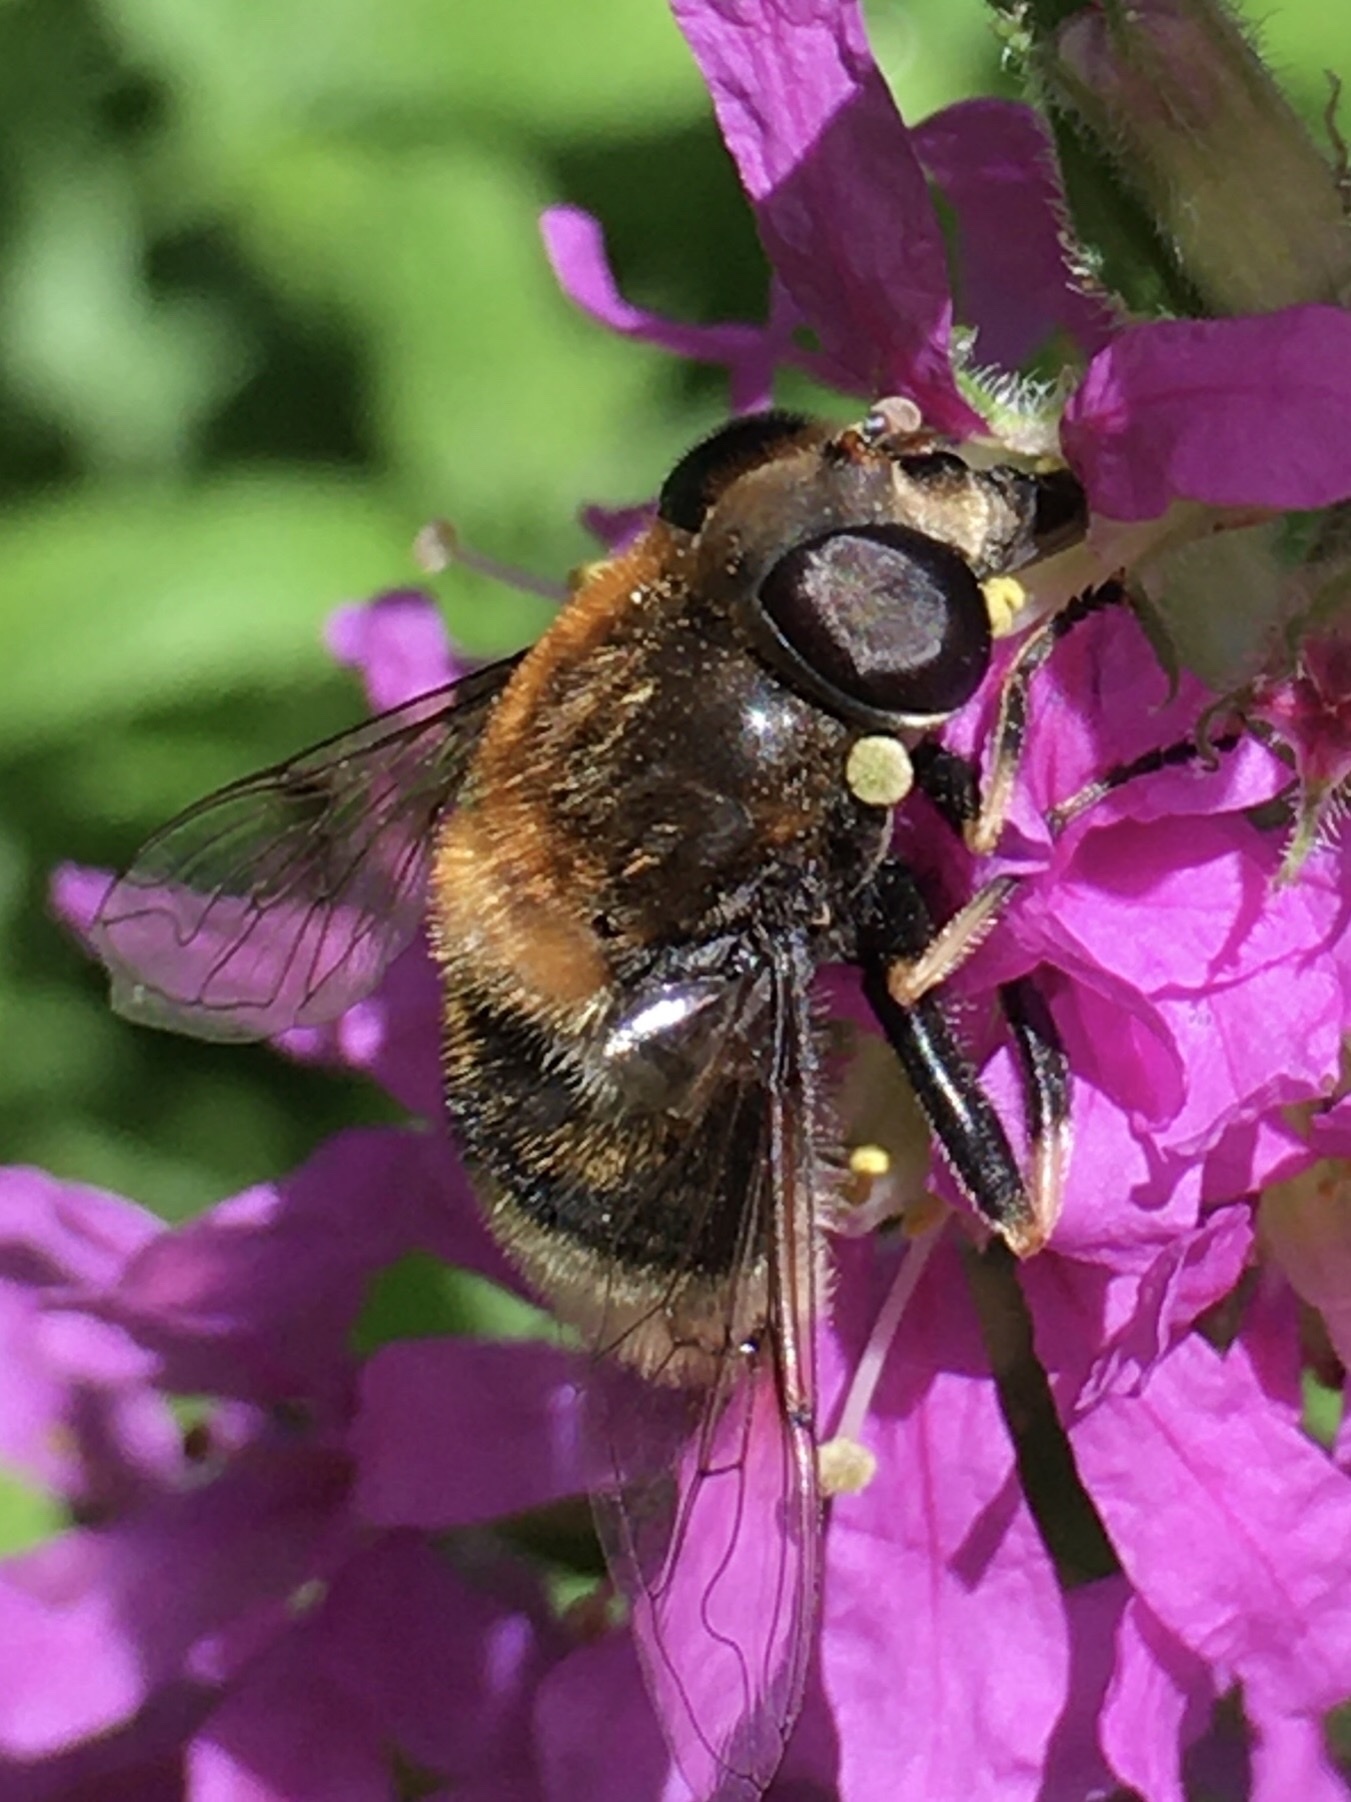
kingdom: Animalia
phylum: Arthropoda
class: Insecta
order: Diptera
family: Syrphidae
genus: Eristalis
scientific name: Eristalis intricaria
